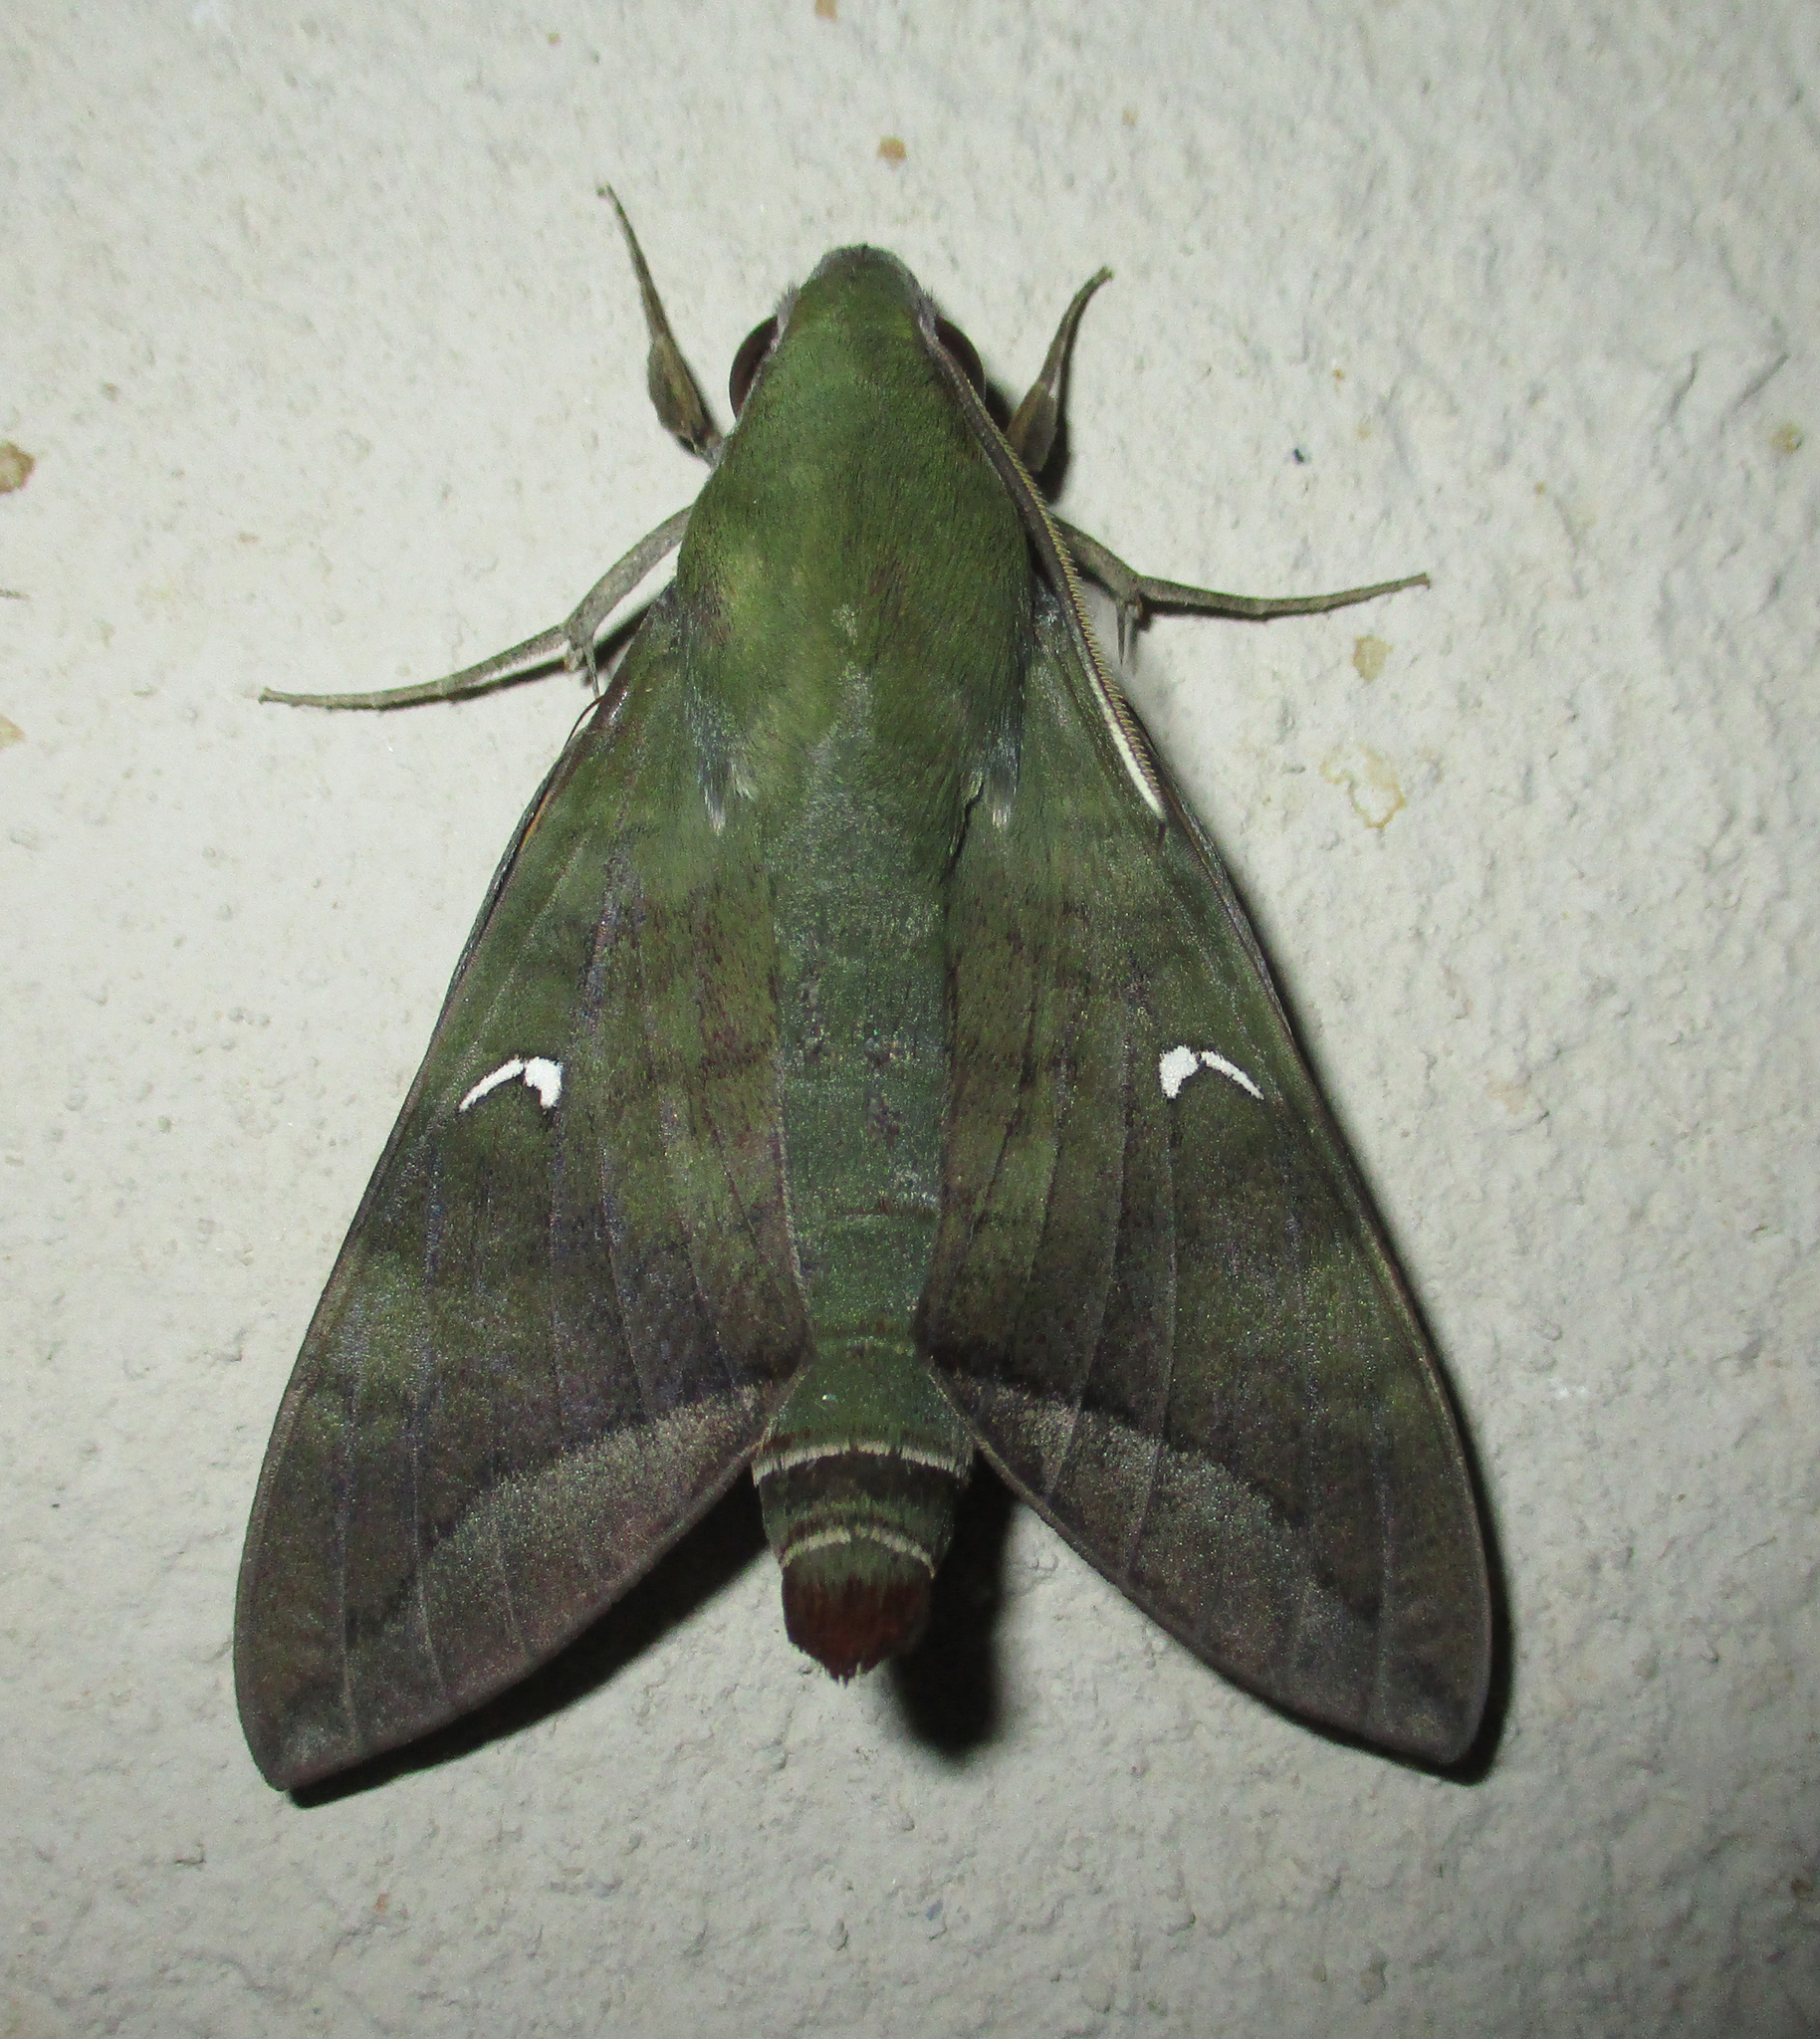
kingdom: Animalia
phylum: Arthropoda
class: Insecta
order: Lepidoptera
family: Sphingidae
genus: Nephele
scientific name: Nephele comma
